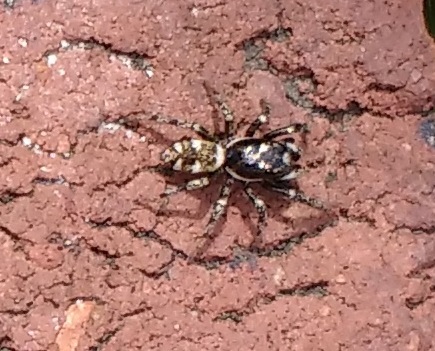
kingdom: Animalia
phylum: Arthropoda
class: Arachnida
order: Araneae
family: Salticidae
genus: Salticus
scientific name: Salticus scenicus
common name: Zebra jumper
